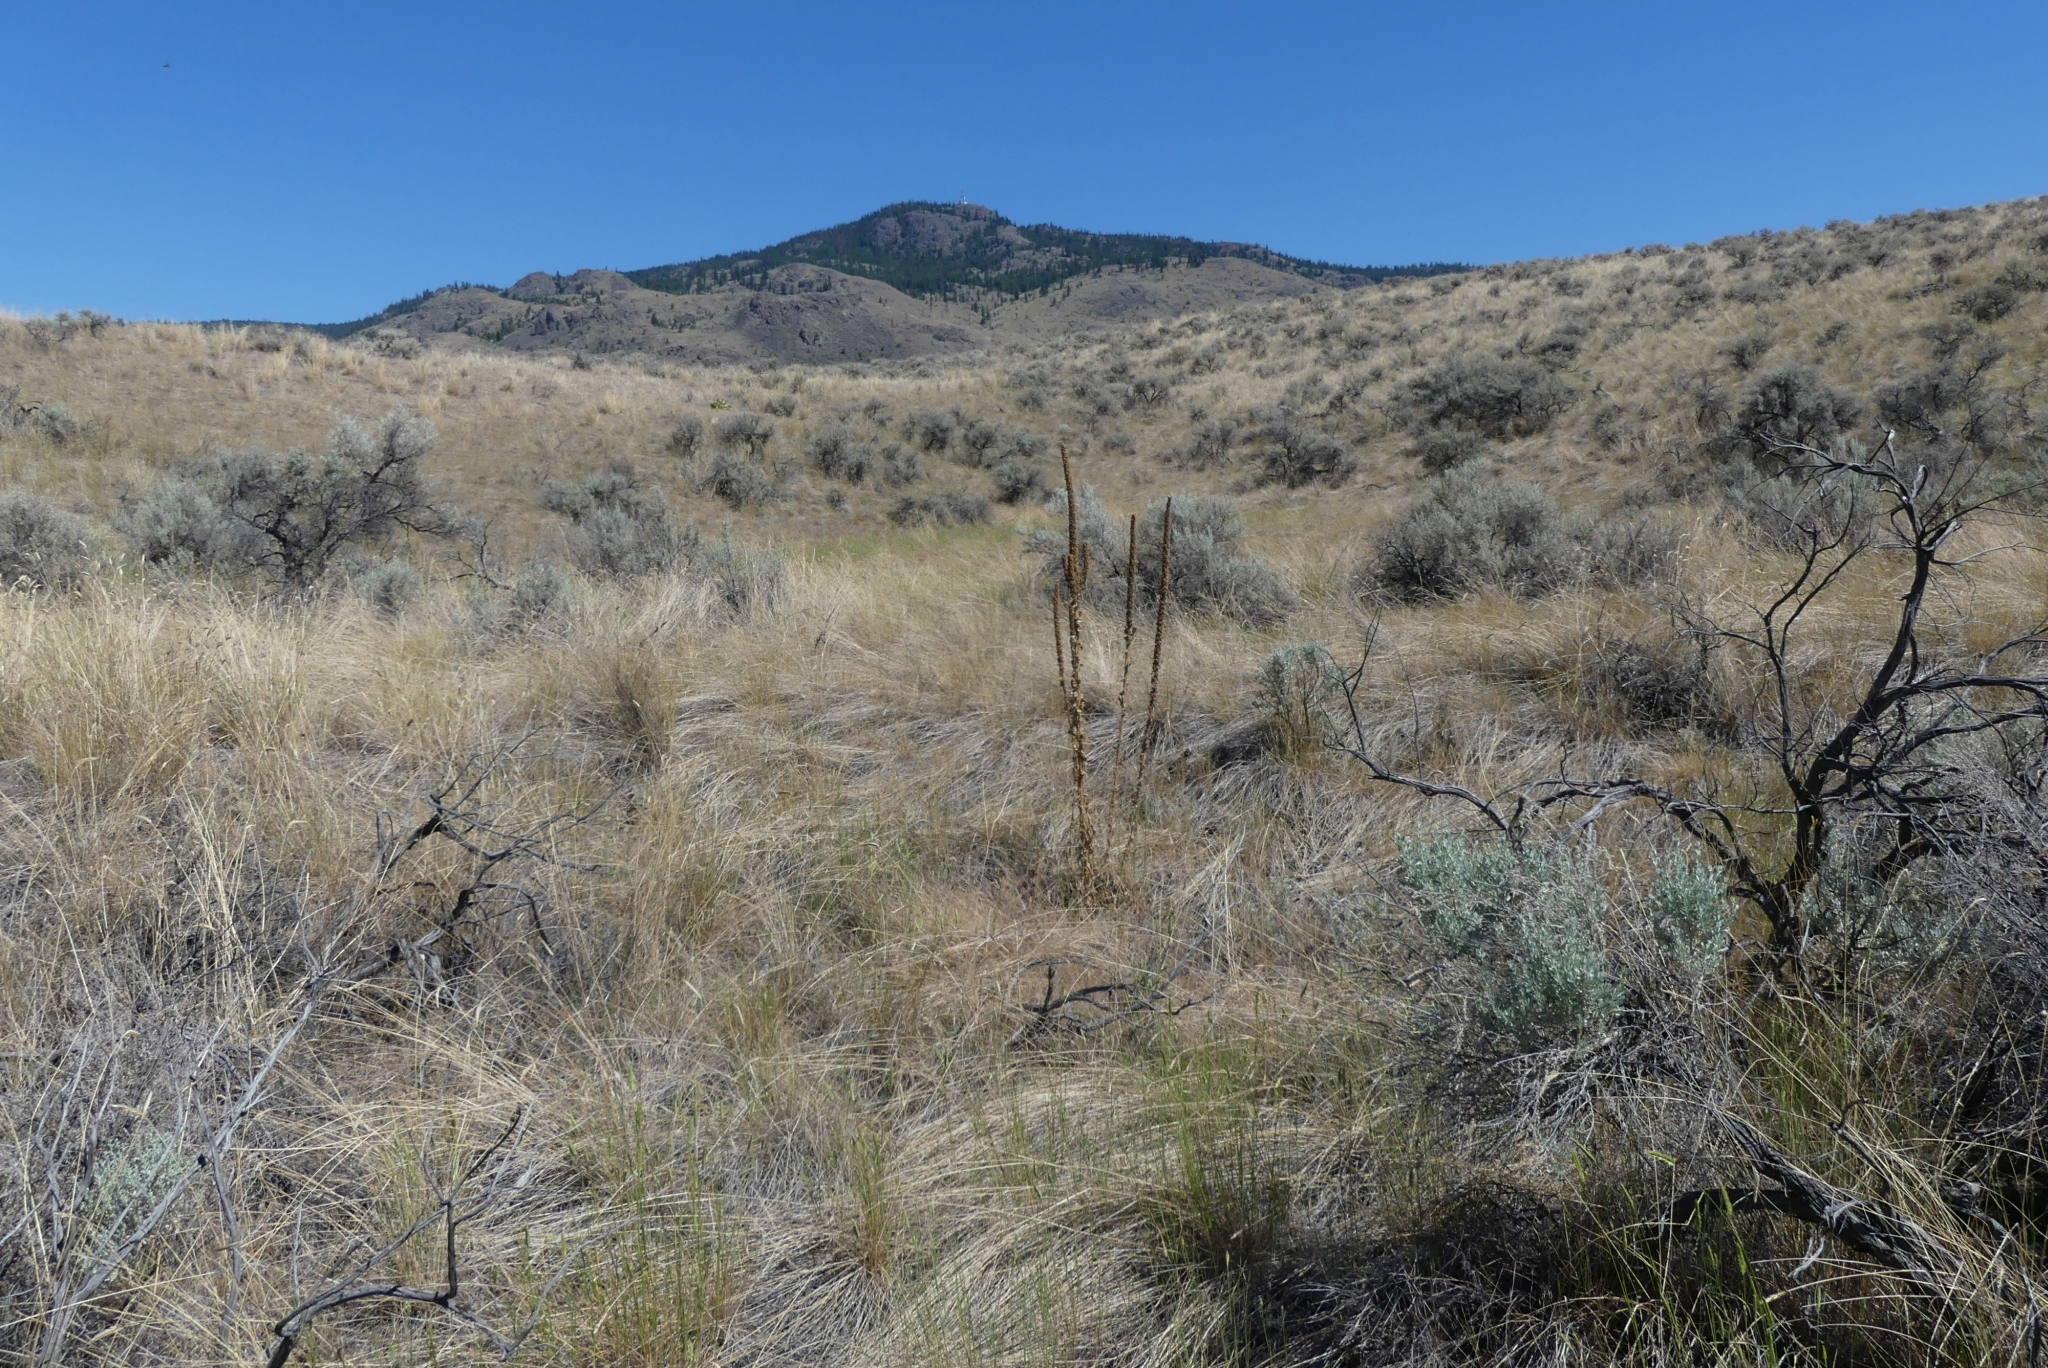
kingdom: Plantae
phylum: Tracheophyta
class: Magnoliopsida
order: Lamiales
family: Scrophulariaceae
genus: Verbascum
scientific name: Verbascum thapsus
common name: Common mullein
